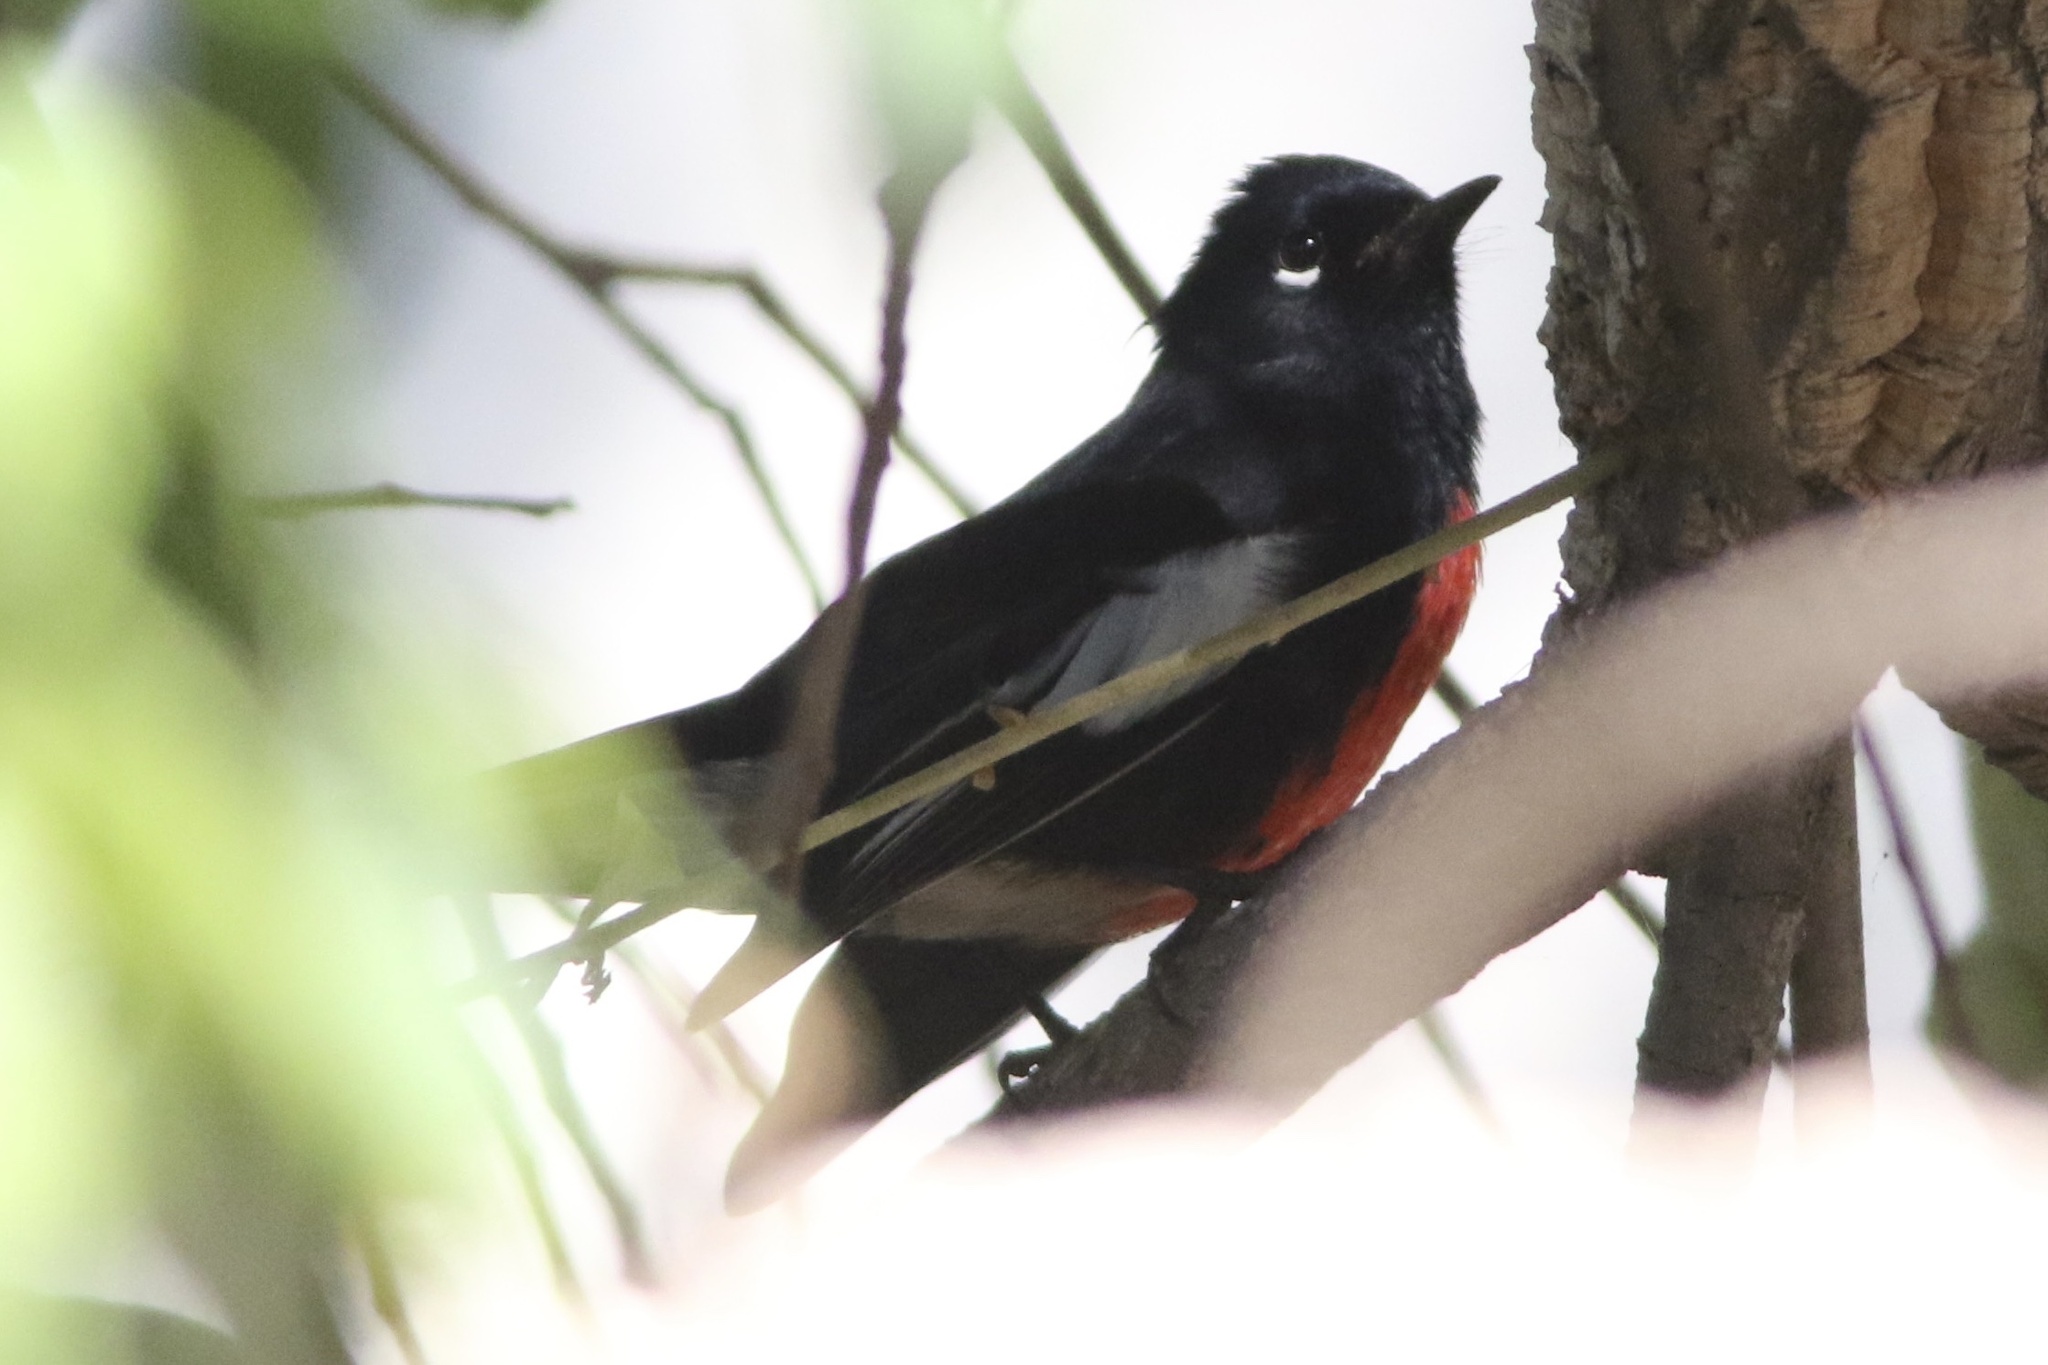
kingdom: Animalia
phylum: Chordata
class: Aves
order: Passeriformes
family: Parulidae
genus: Myioborus
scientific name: Myioborus pictus
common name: Painted whitestart
